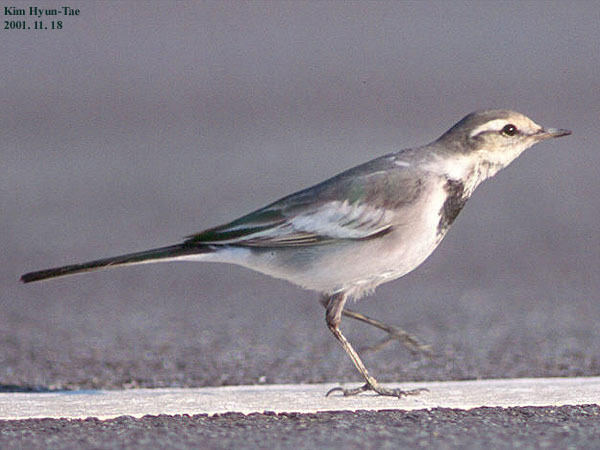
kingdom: Animalia
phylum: Chordata
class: Aves
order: Passeriformes
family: Motacillidae
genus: Motacilla
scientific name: Motacilla alba
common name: White wagtail
